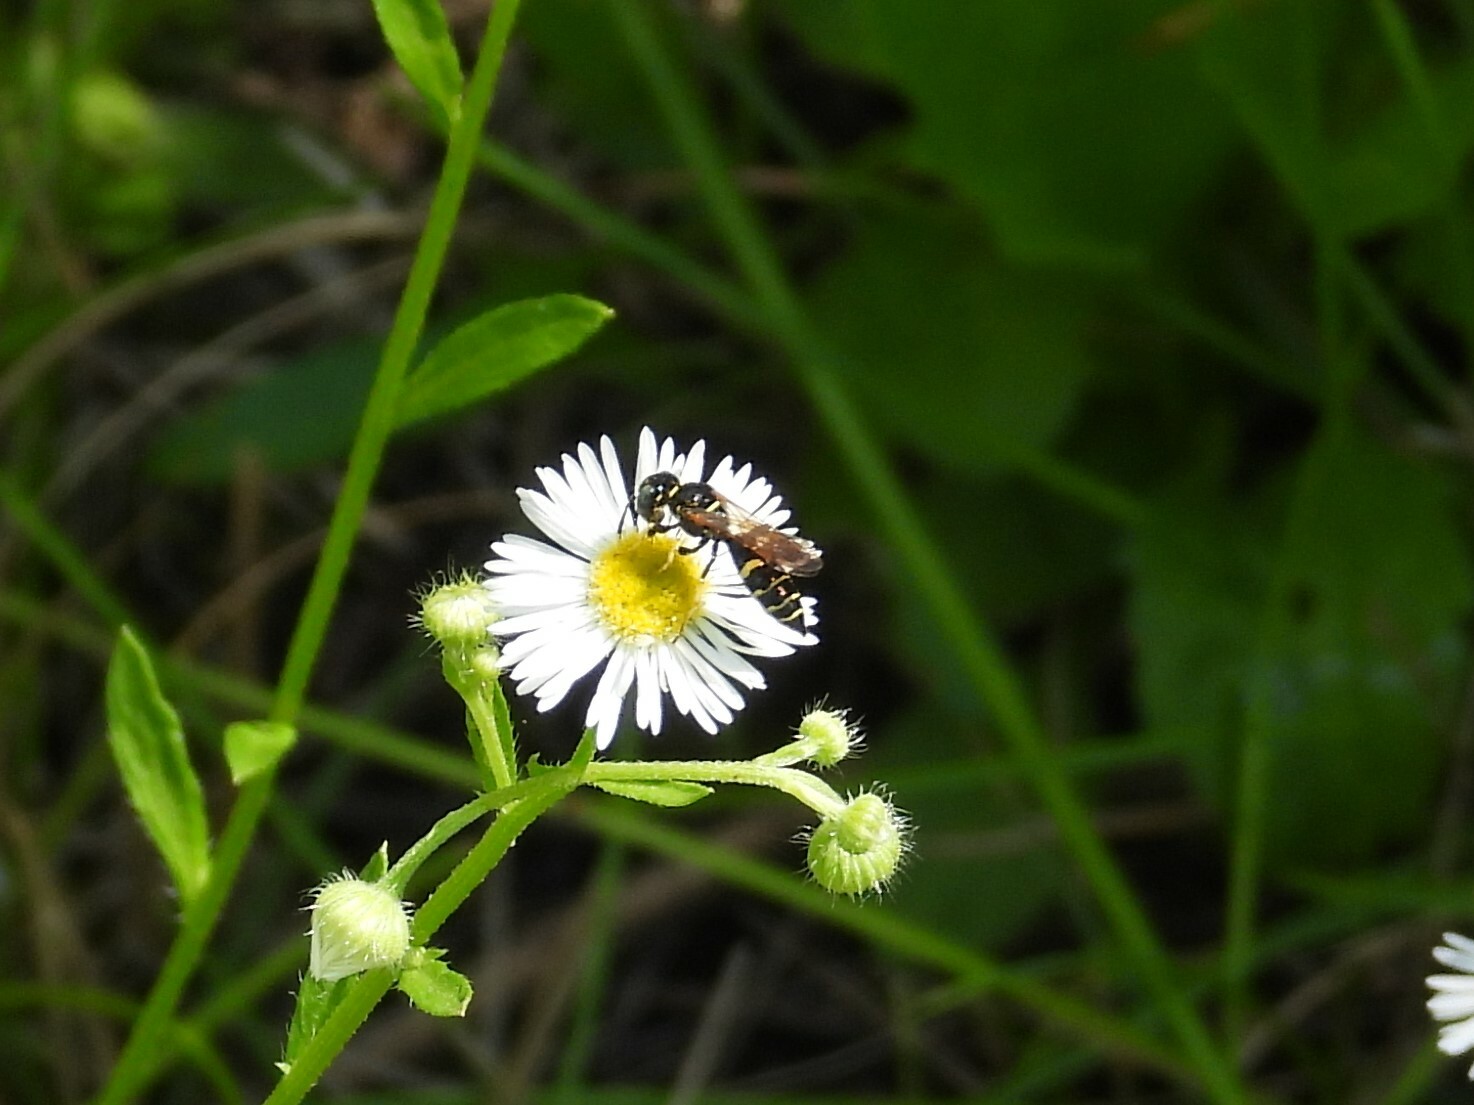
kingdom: Animalia
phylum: Arthropoda
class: Insecta
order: Hymenoptera
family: Crabronidae
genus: Philanthus
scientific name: Philanthus bilunatus
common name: Two moons beewolf
